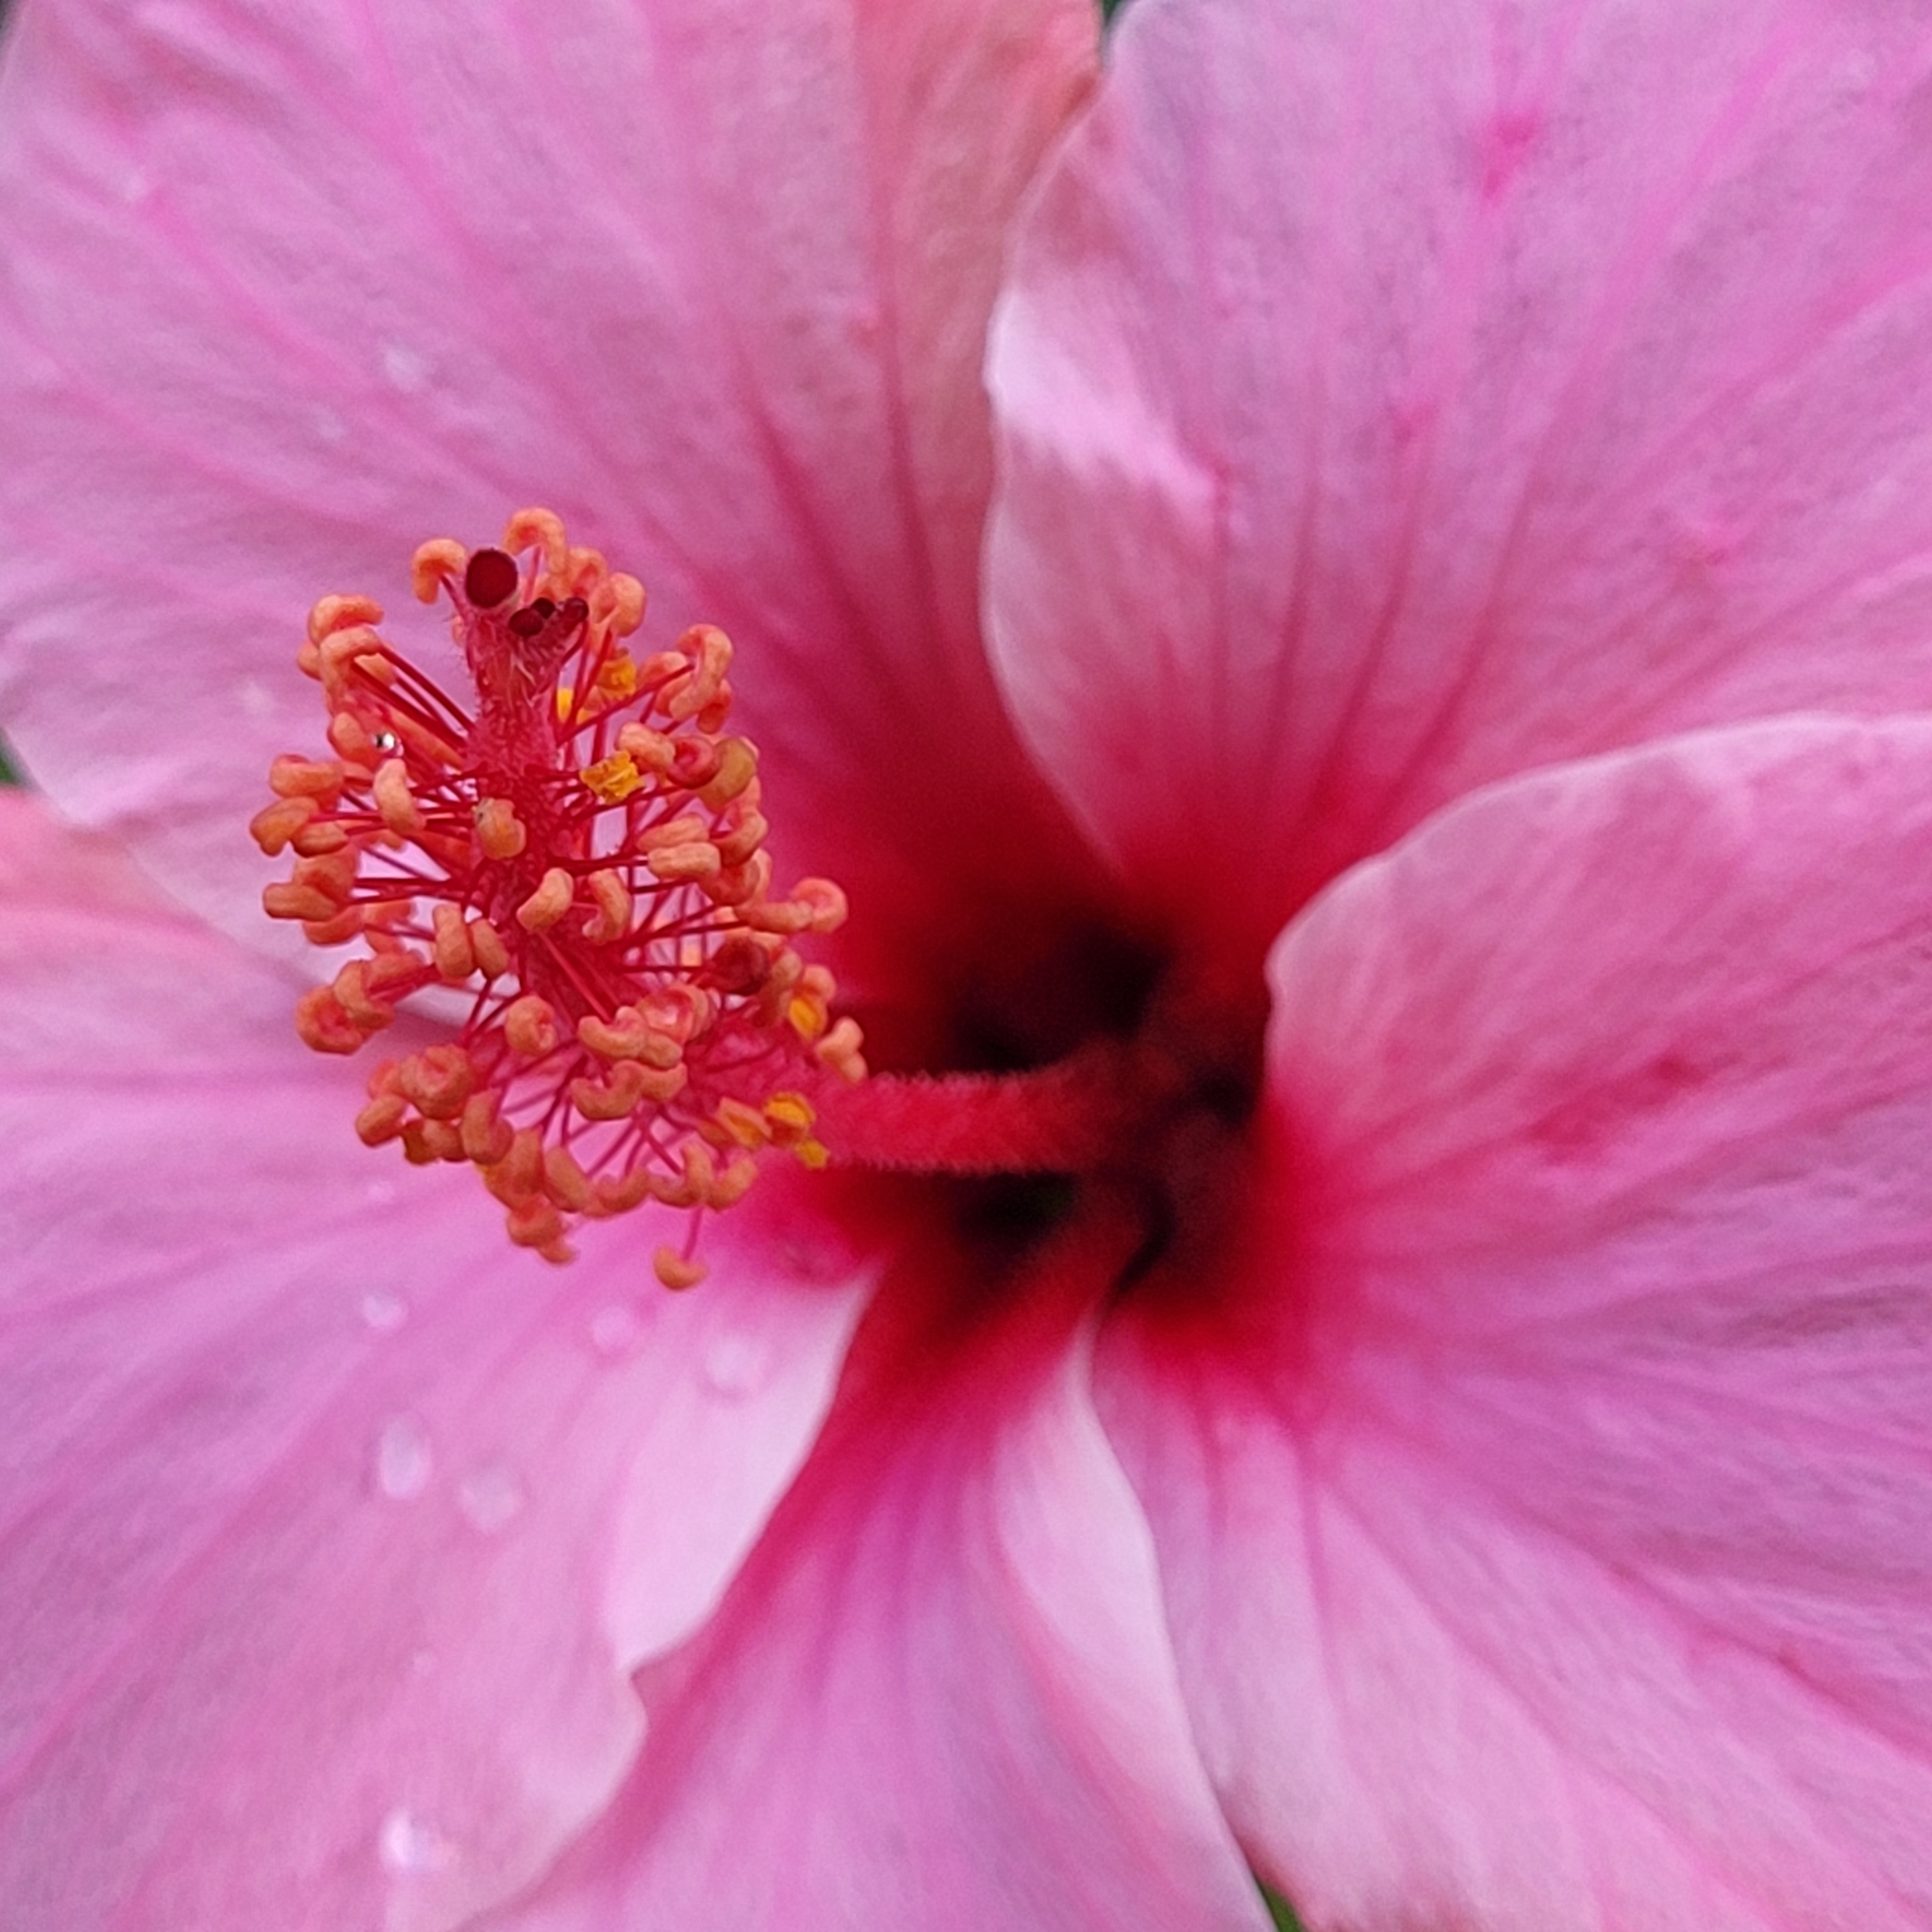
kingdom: Plantae
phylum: Tracheophyta
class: Magnoliopsida
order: Malvales
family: Malvaceae
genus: Hibiscus
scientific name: Hibiscus rosa-sinensis
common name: Hibiscus
